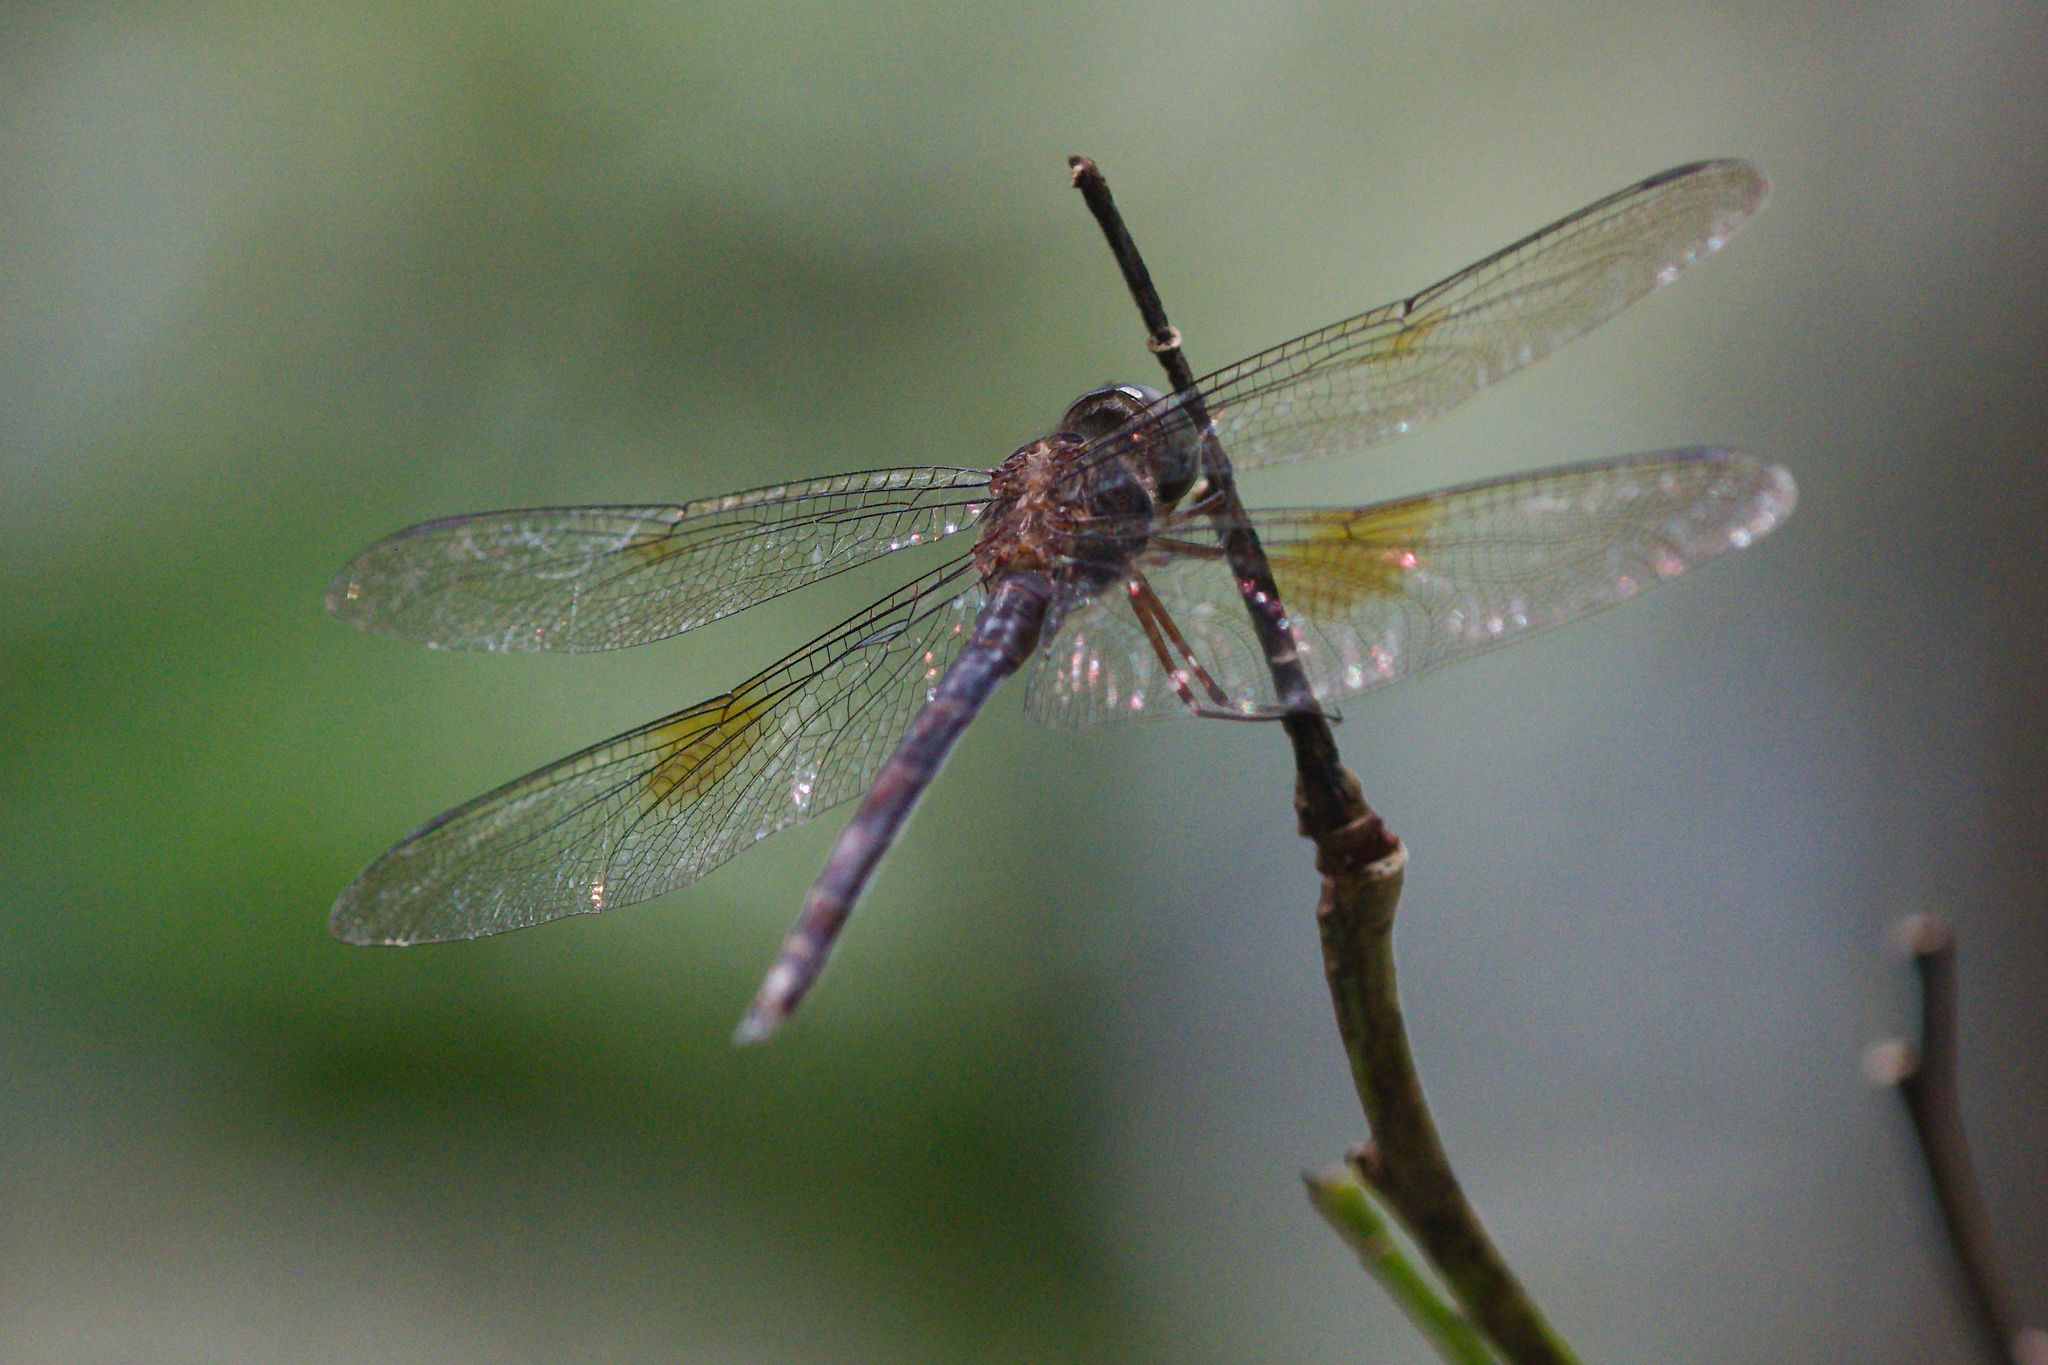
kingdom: Animalia
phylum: Arthropoda
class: Insecta
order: Odonata
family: Libellulidae
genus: Tholymis
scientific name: Tholymis citrina
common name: Evening skimmer
